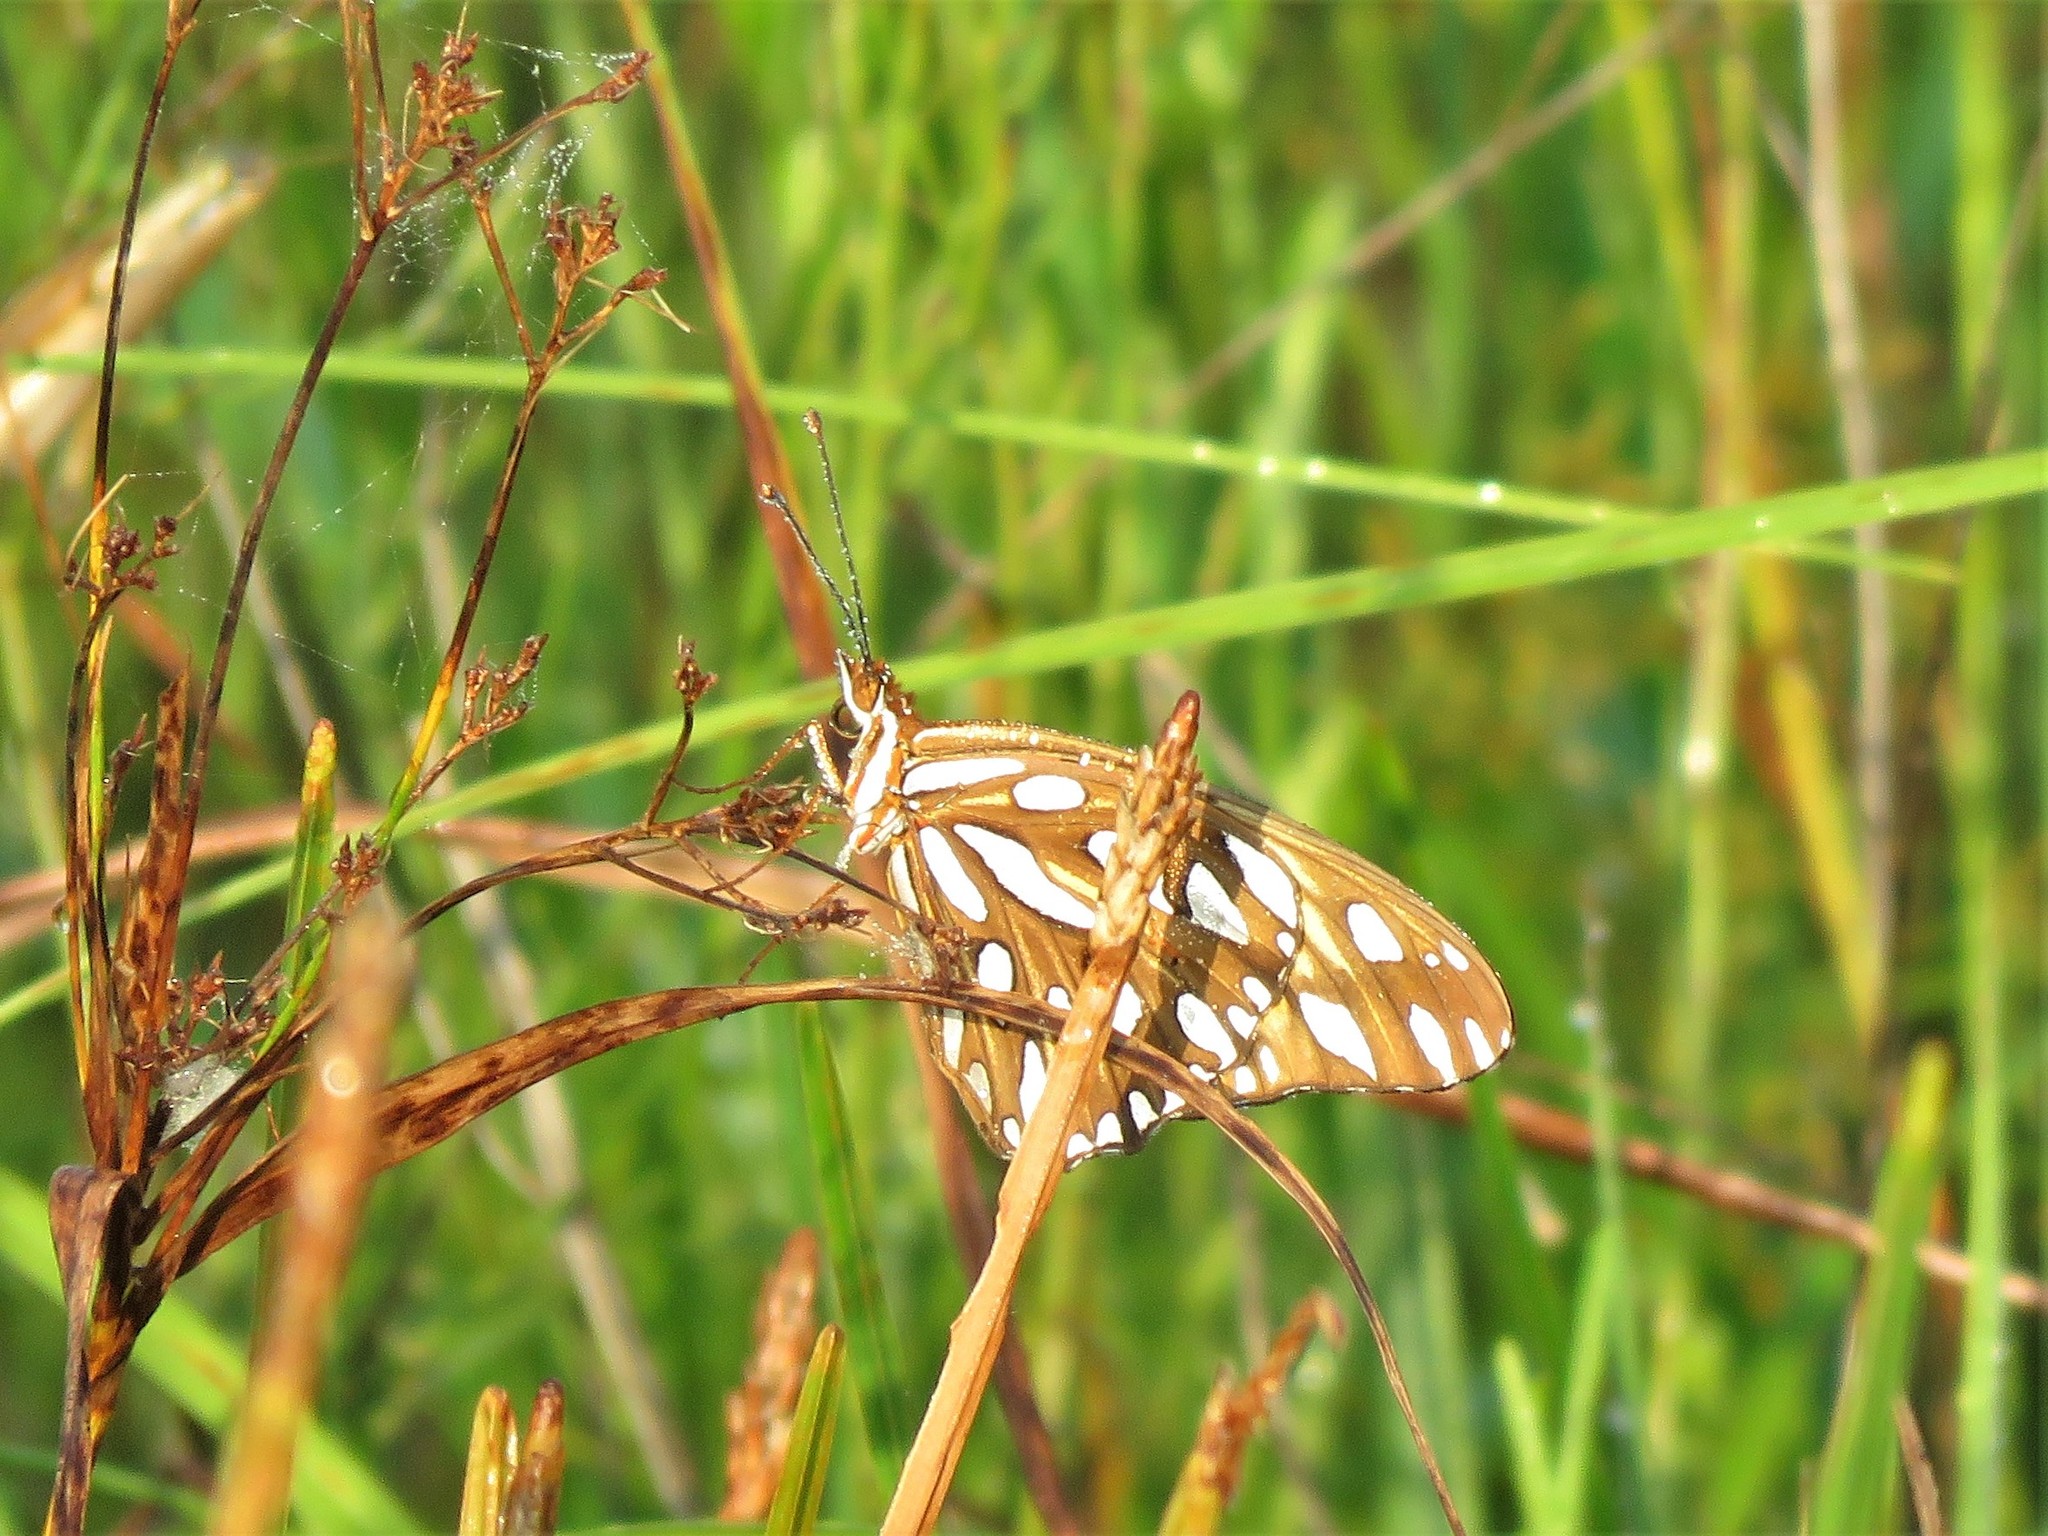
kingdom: Animalia
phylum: Arthropoda
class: Insecta
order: Lepidoptera
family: Nymphalidae
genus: Dione
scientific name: Dione vanillae
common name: Gulf fritillary
